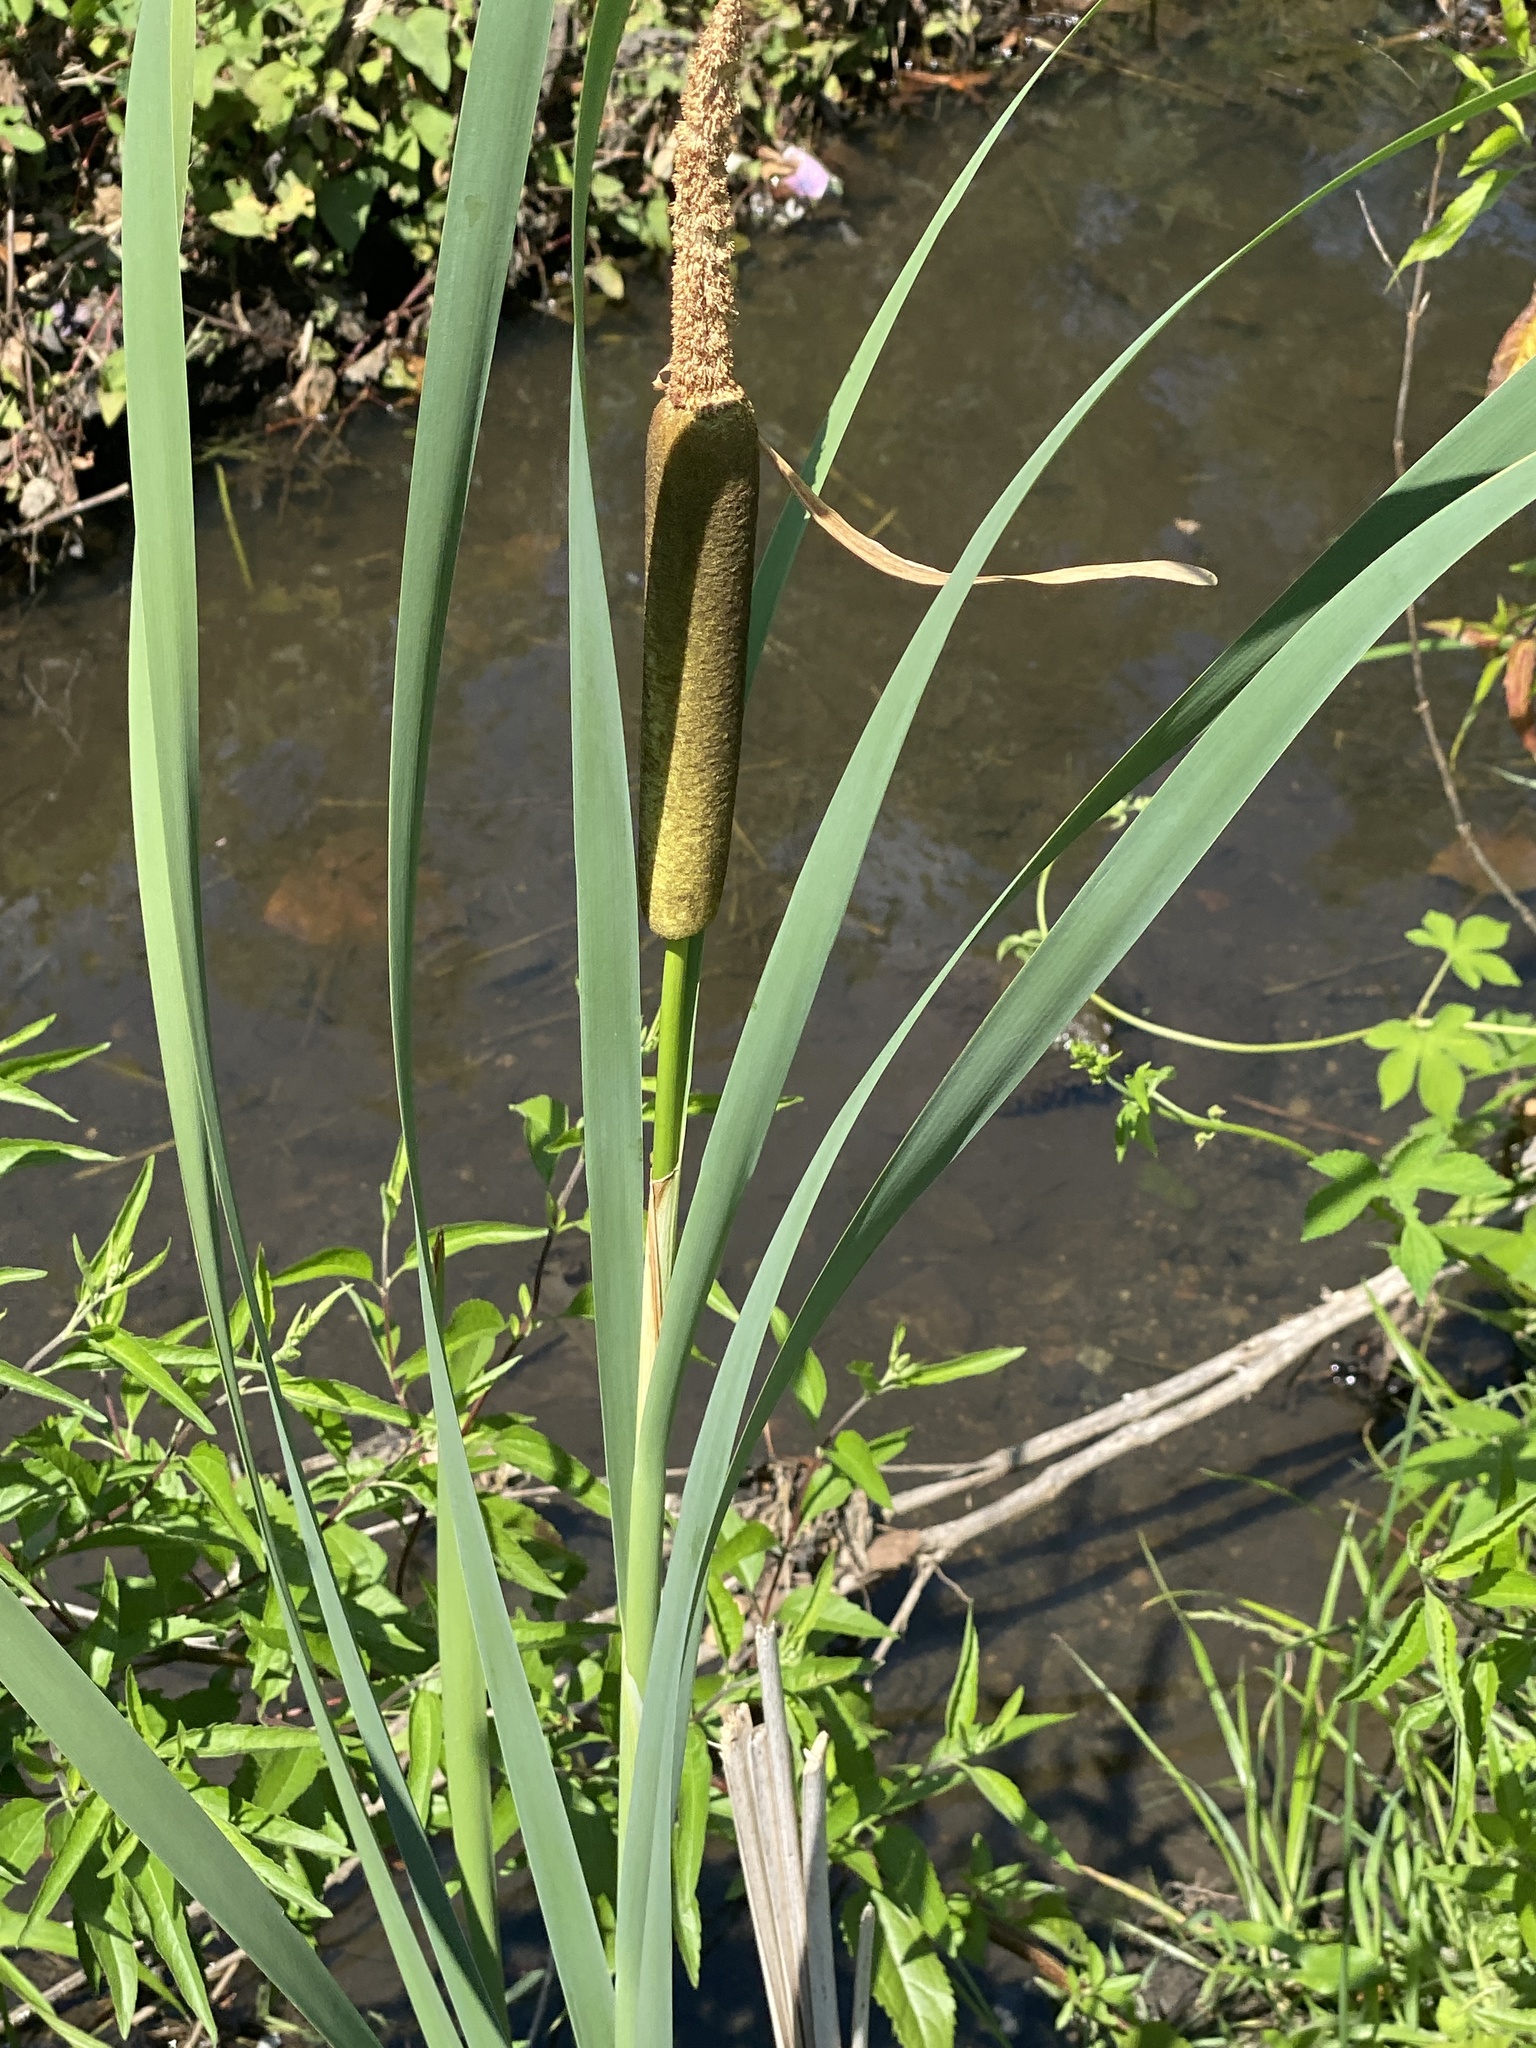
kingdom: Plantae
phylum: Tracheophyta
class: Liliopsida
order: Poales
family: Typhaceae
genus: Typha
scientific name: Typha latifolia
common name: Broadleaf cattail
